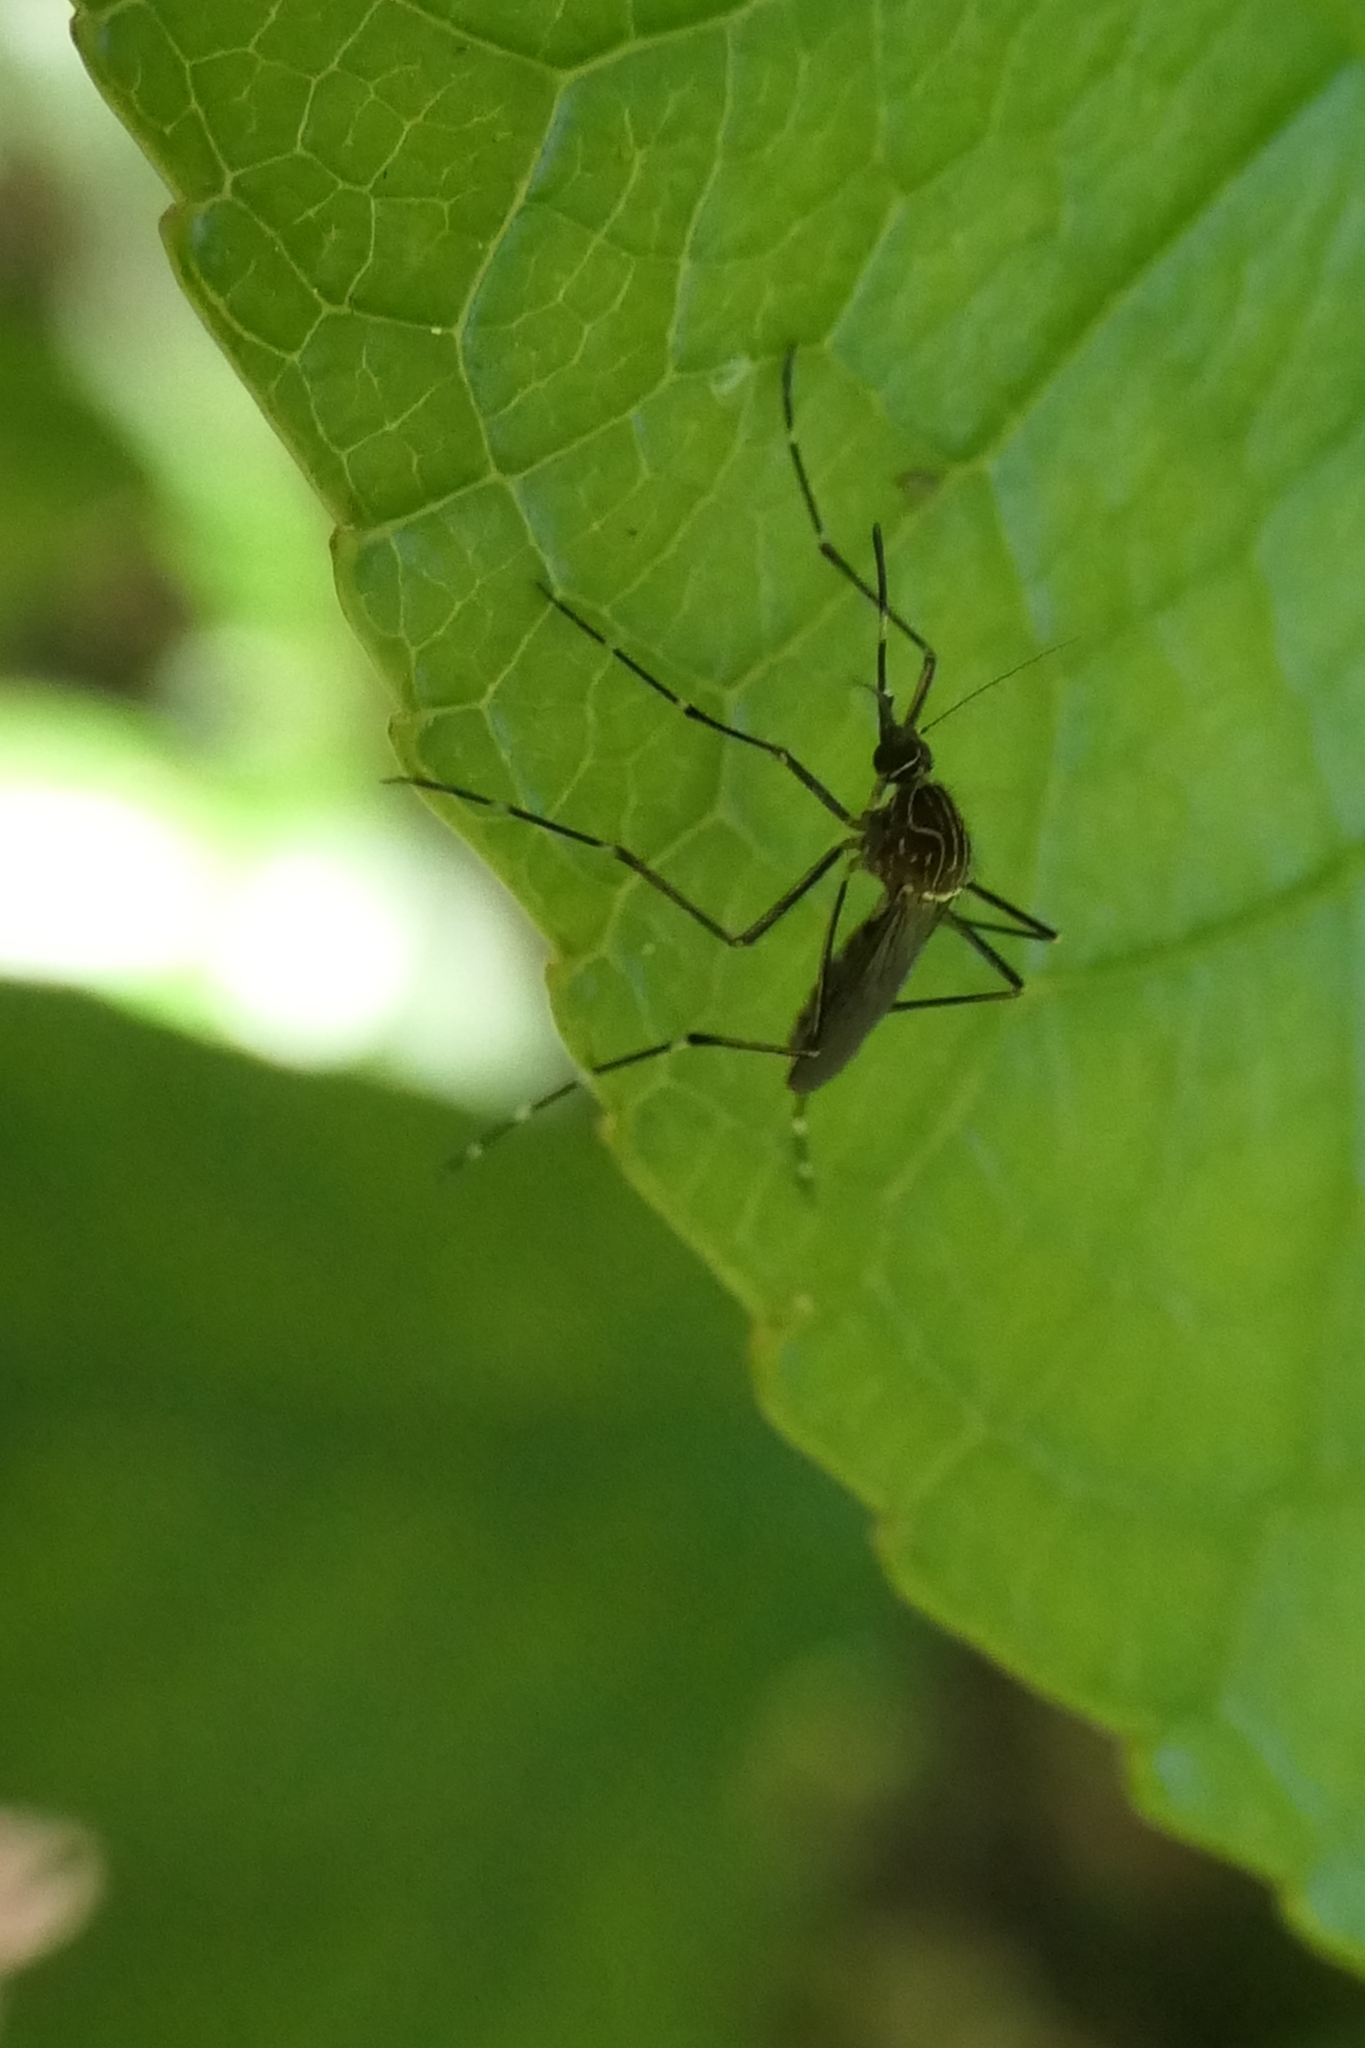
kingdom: Animalia
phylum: Arthropoda
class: Insecta
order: Diptera
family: Culicidae
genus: Aedes
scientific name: Aedes notoscriptus
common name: Australian backyard mosquito
